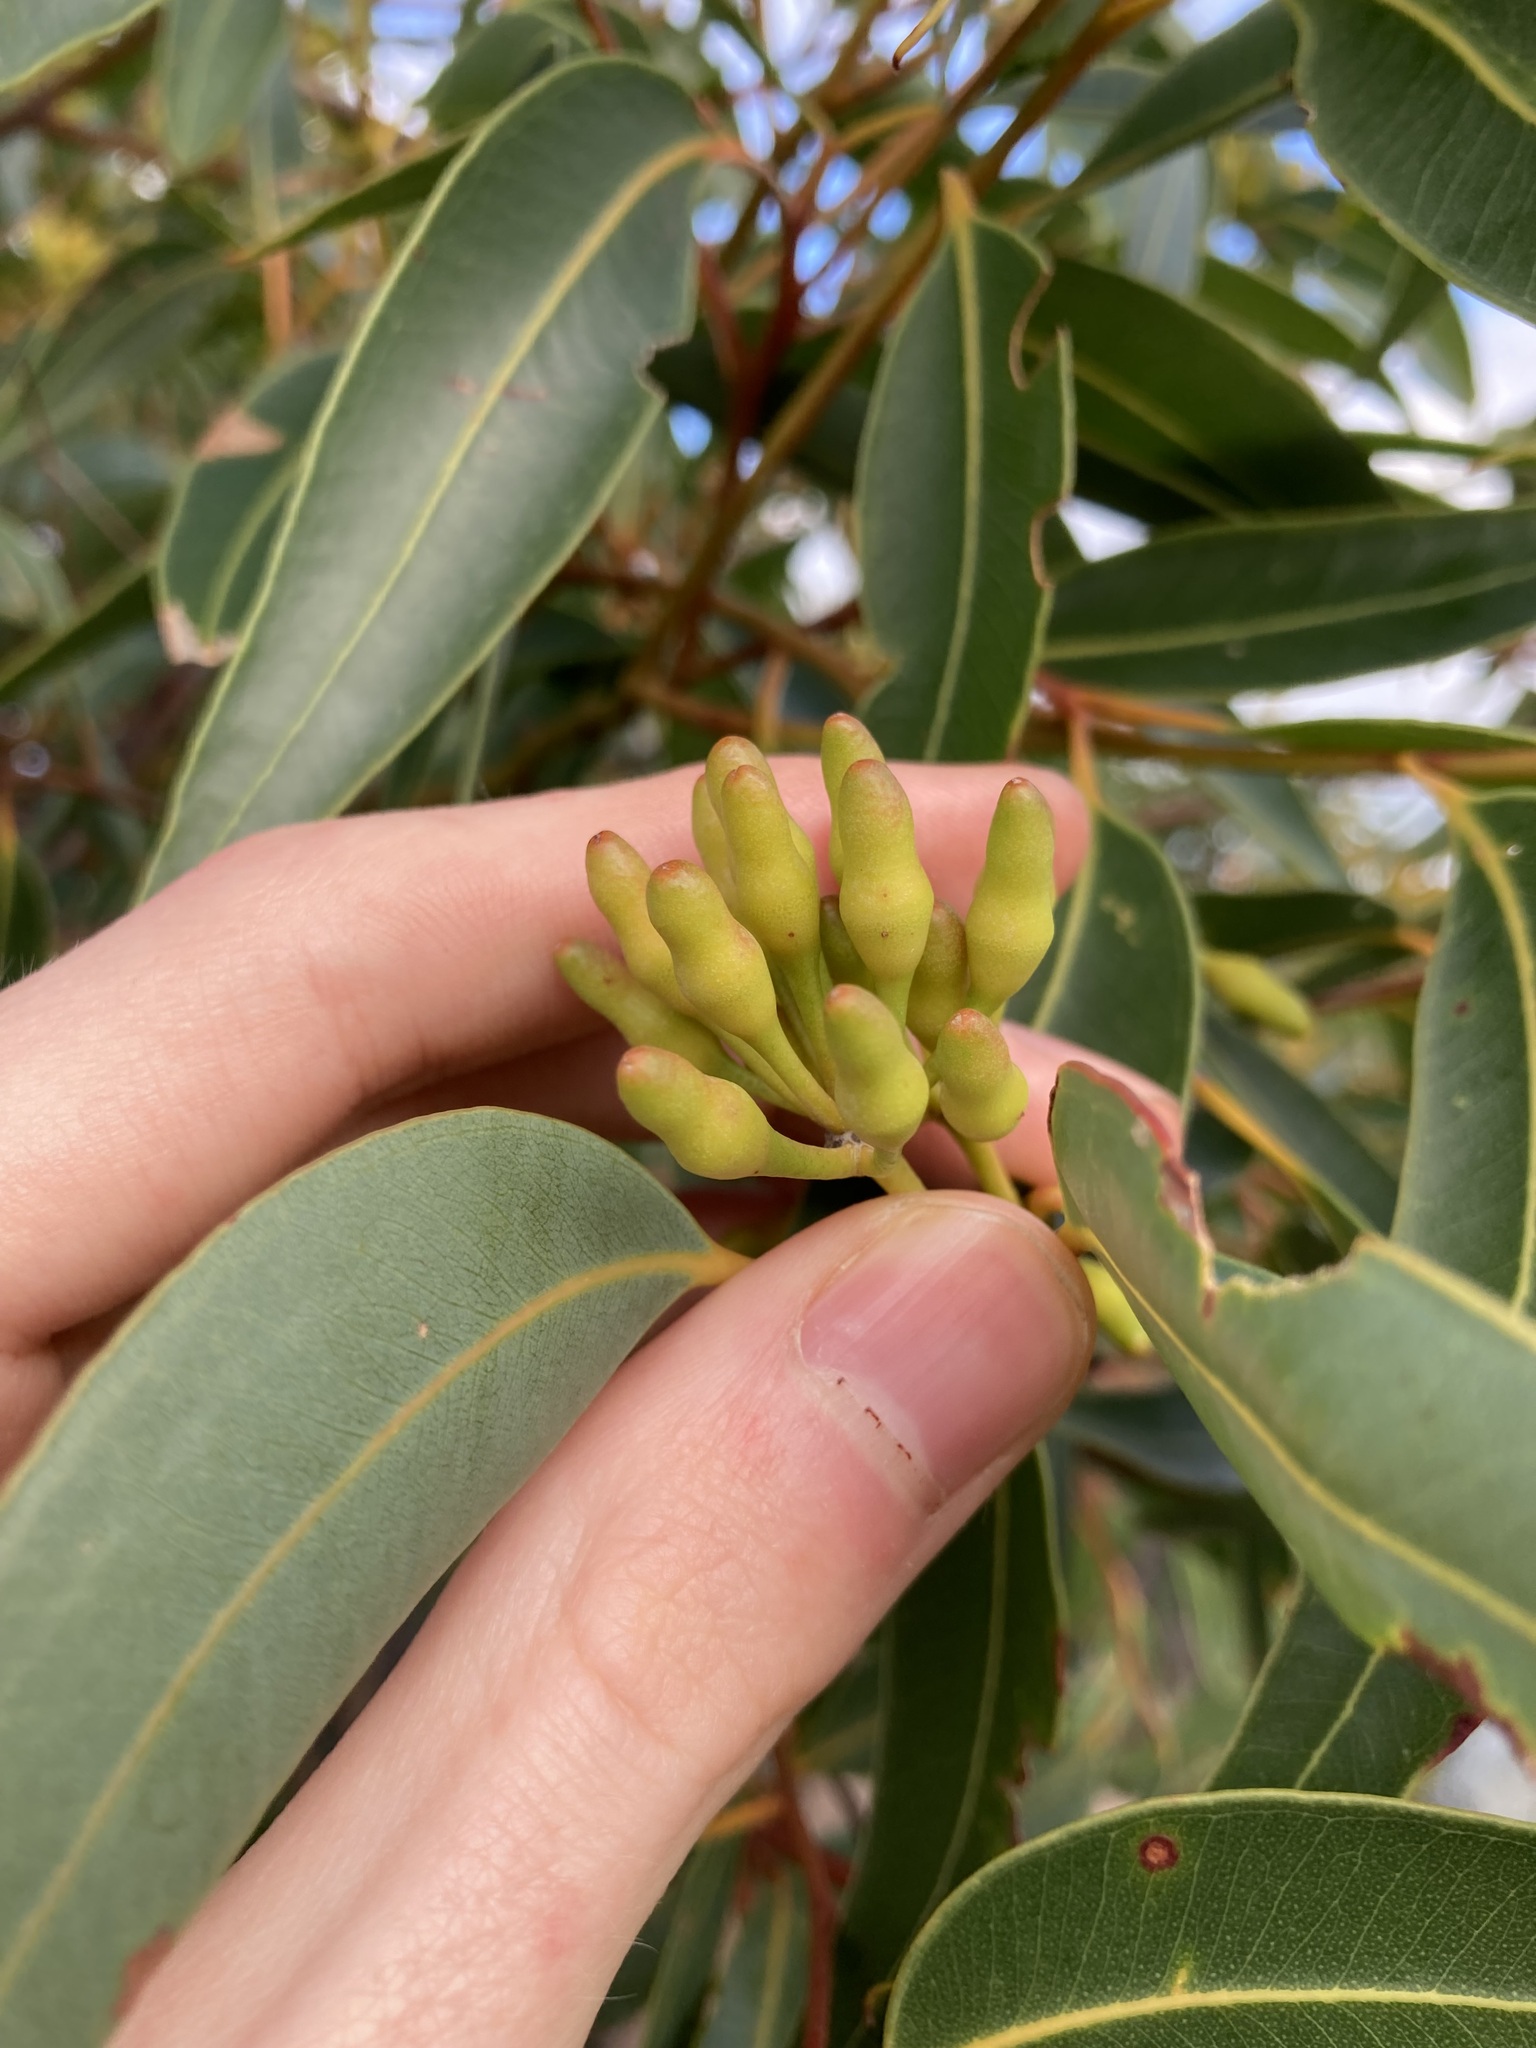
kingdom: Plantae
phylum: Tracheophyta
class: Magnoliopsida
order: Myrtales
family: Myrtaceae
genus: Eucalyptus
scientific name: Eucalyptus marginata
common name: Jarrah
